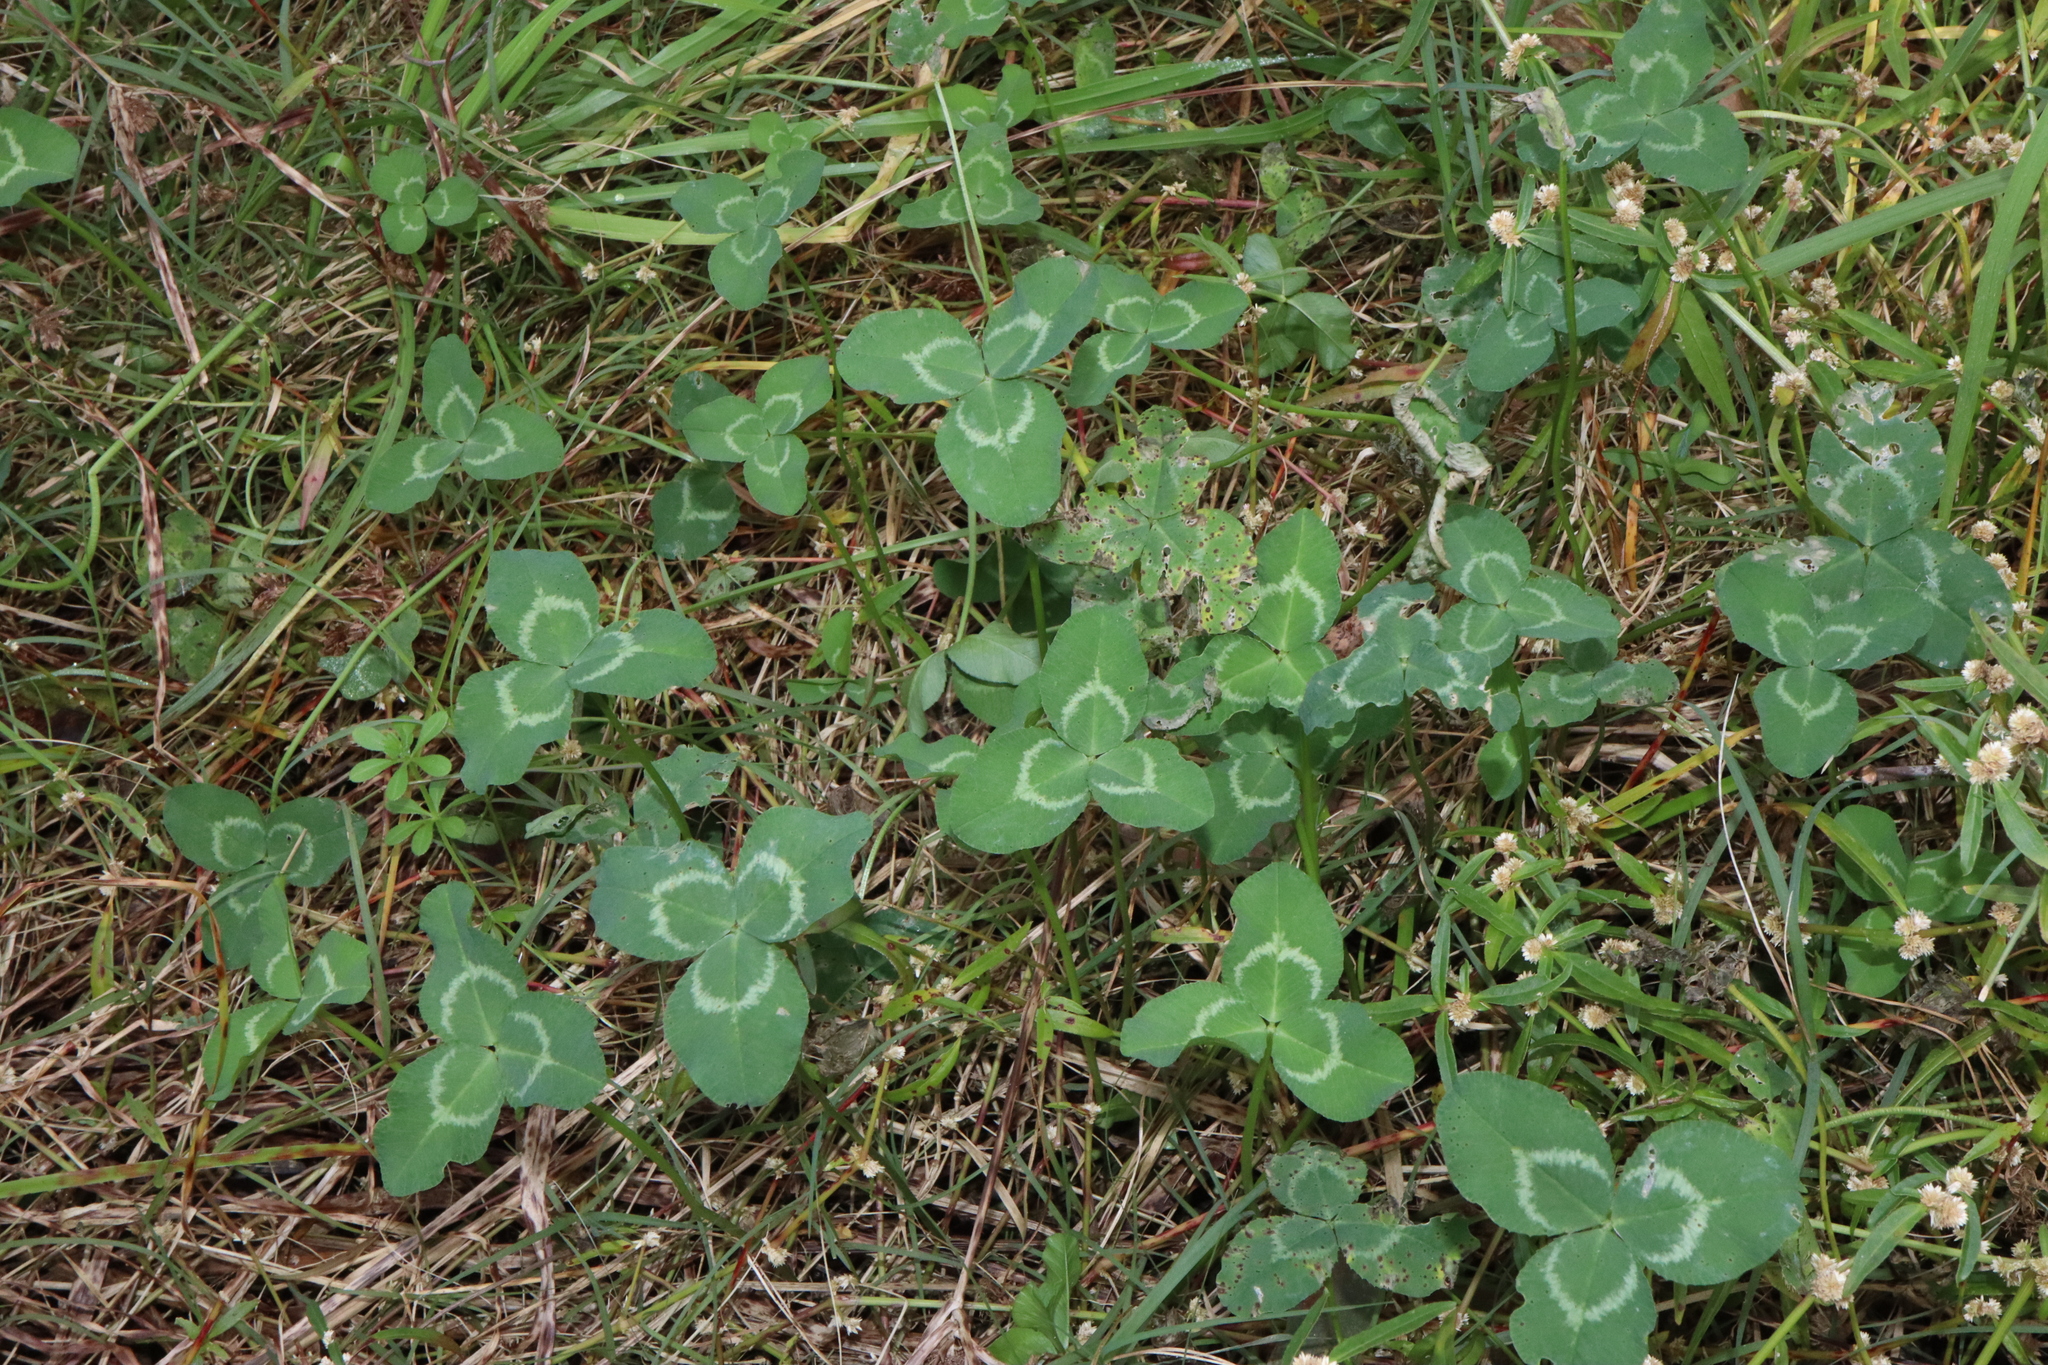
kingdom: Plantae
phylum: Tracheophyta
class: Magnoliopsida
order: Fabales
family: Fabaceae
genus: Trifolium
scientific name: Trifolium repens
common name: White clover
